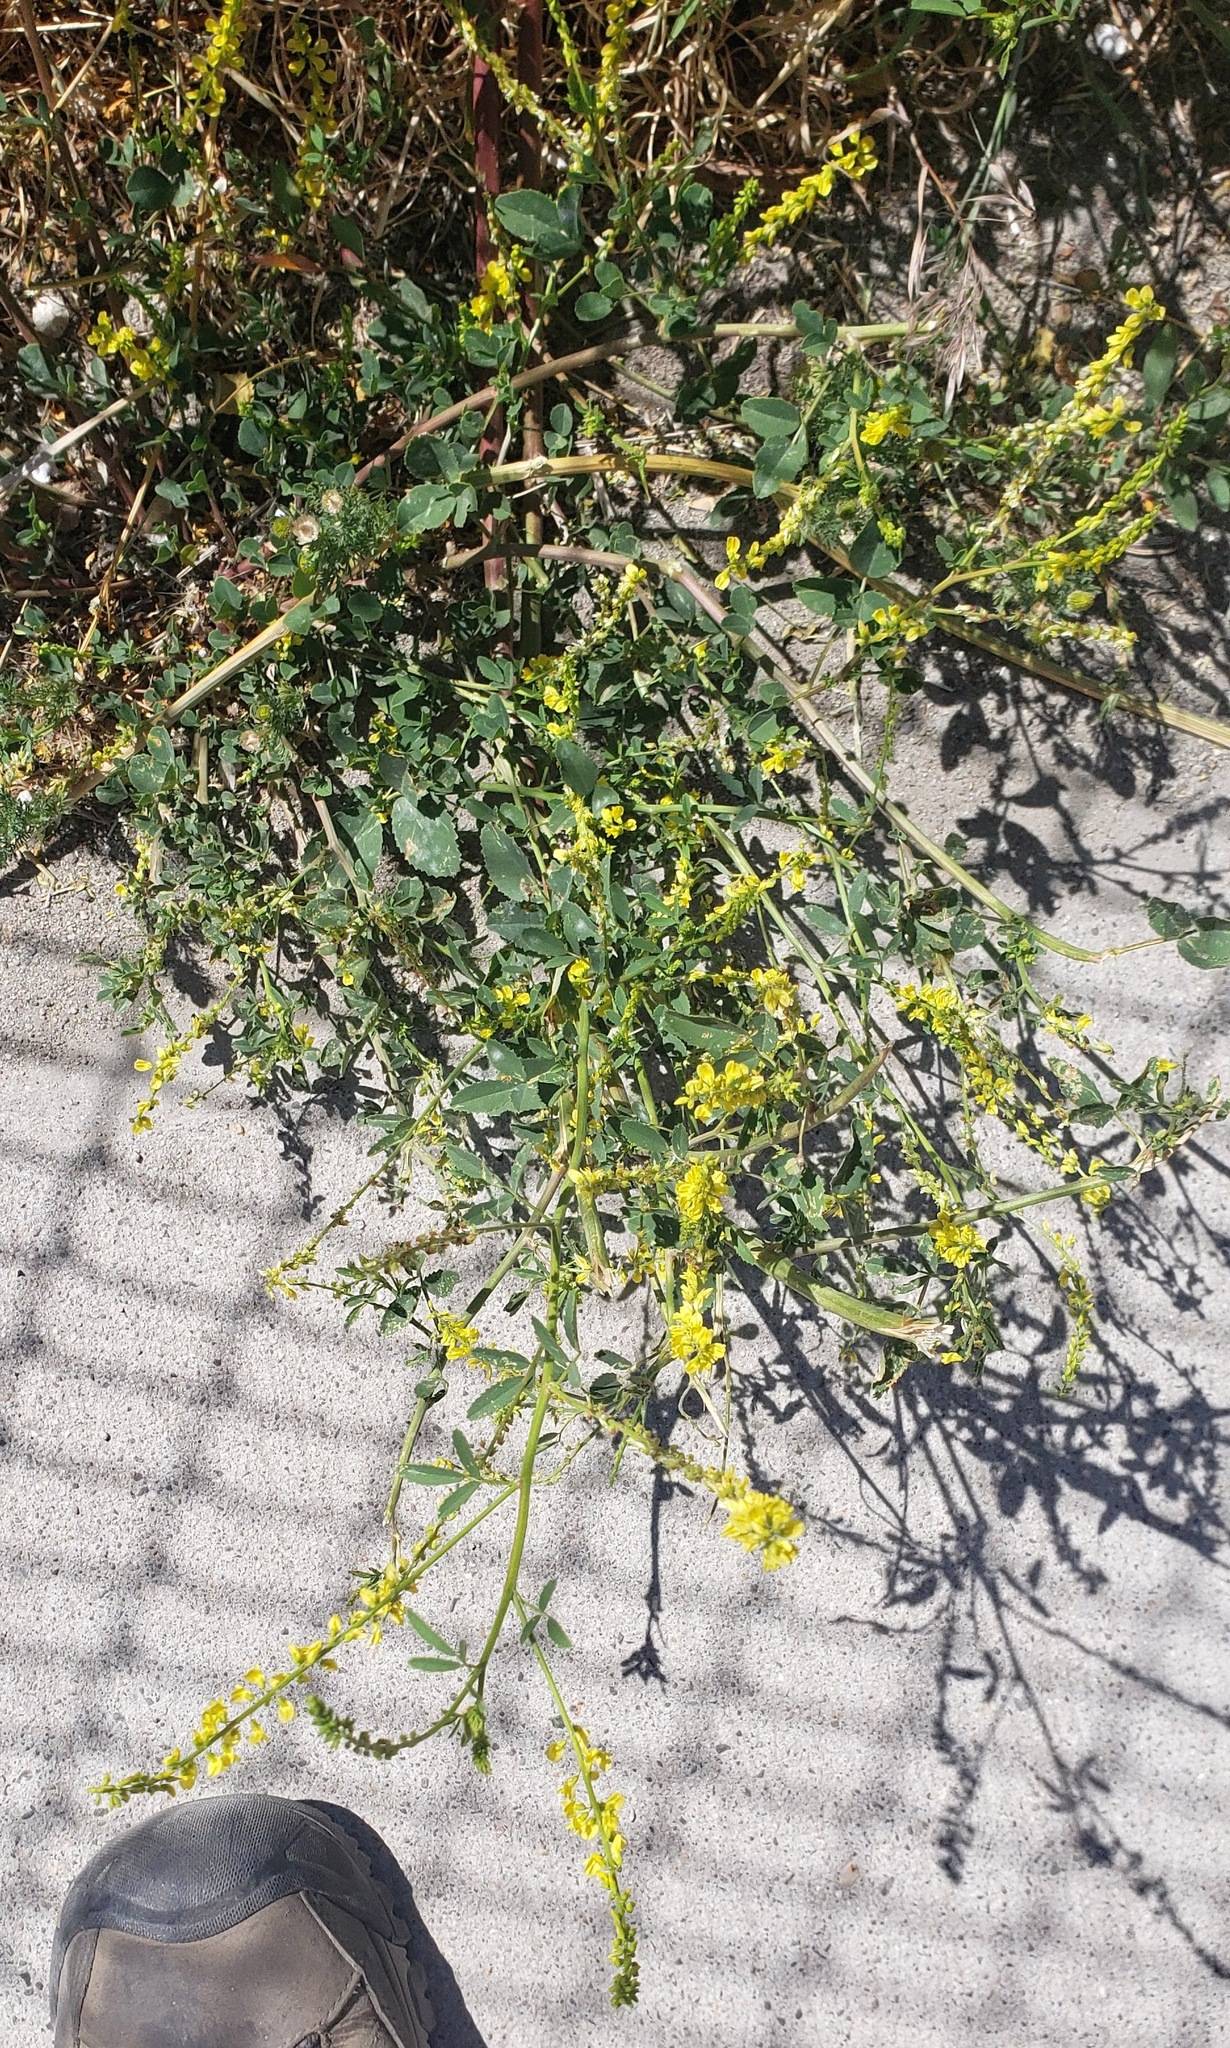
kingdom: Plantae
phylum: Tracheophyta
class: Magnoliopsida
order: Fabales
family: Fabaceae
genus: Melilotus
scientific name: Melilotus officinalis
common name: Sweetclover
